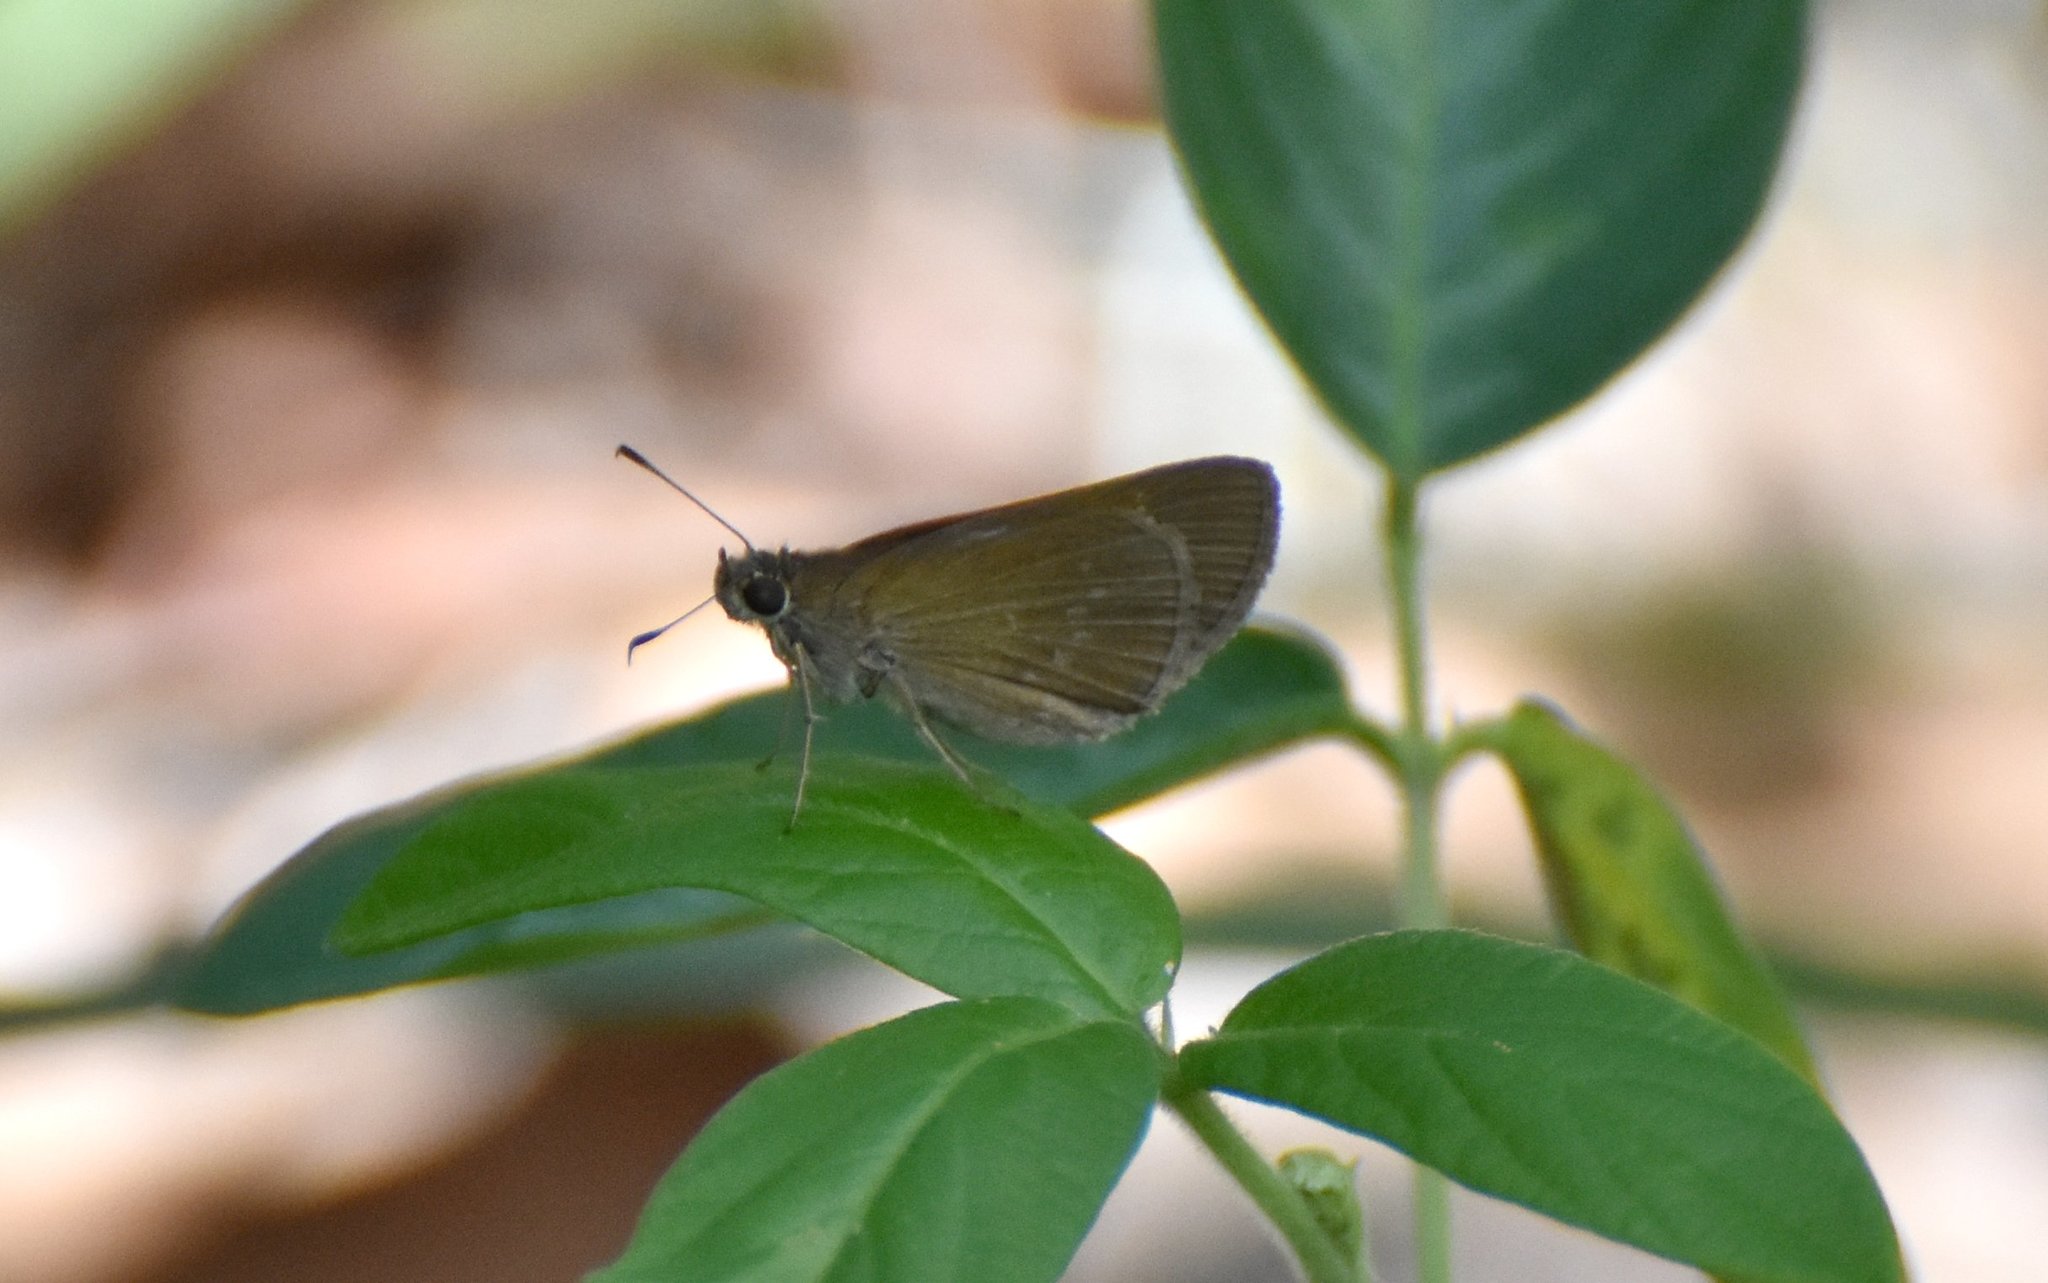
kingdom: Animalia
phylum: Arthropoda
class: Insecta
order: Lepidoptera
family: Hesperiidae
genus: Cymaenes
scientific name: Cymaenes tripunctus
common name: Dingy dotted skipper
